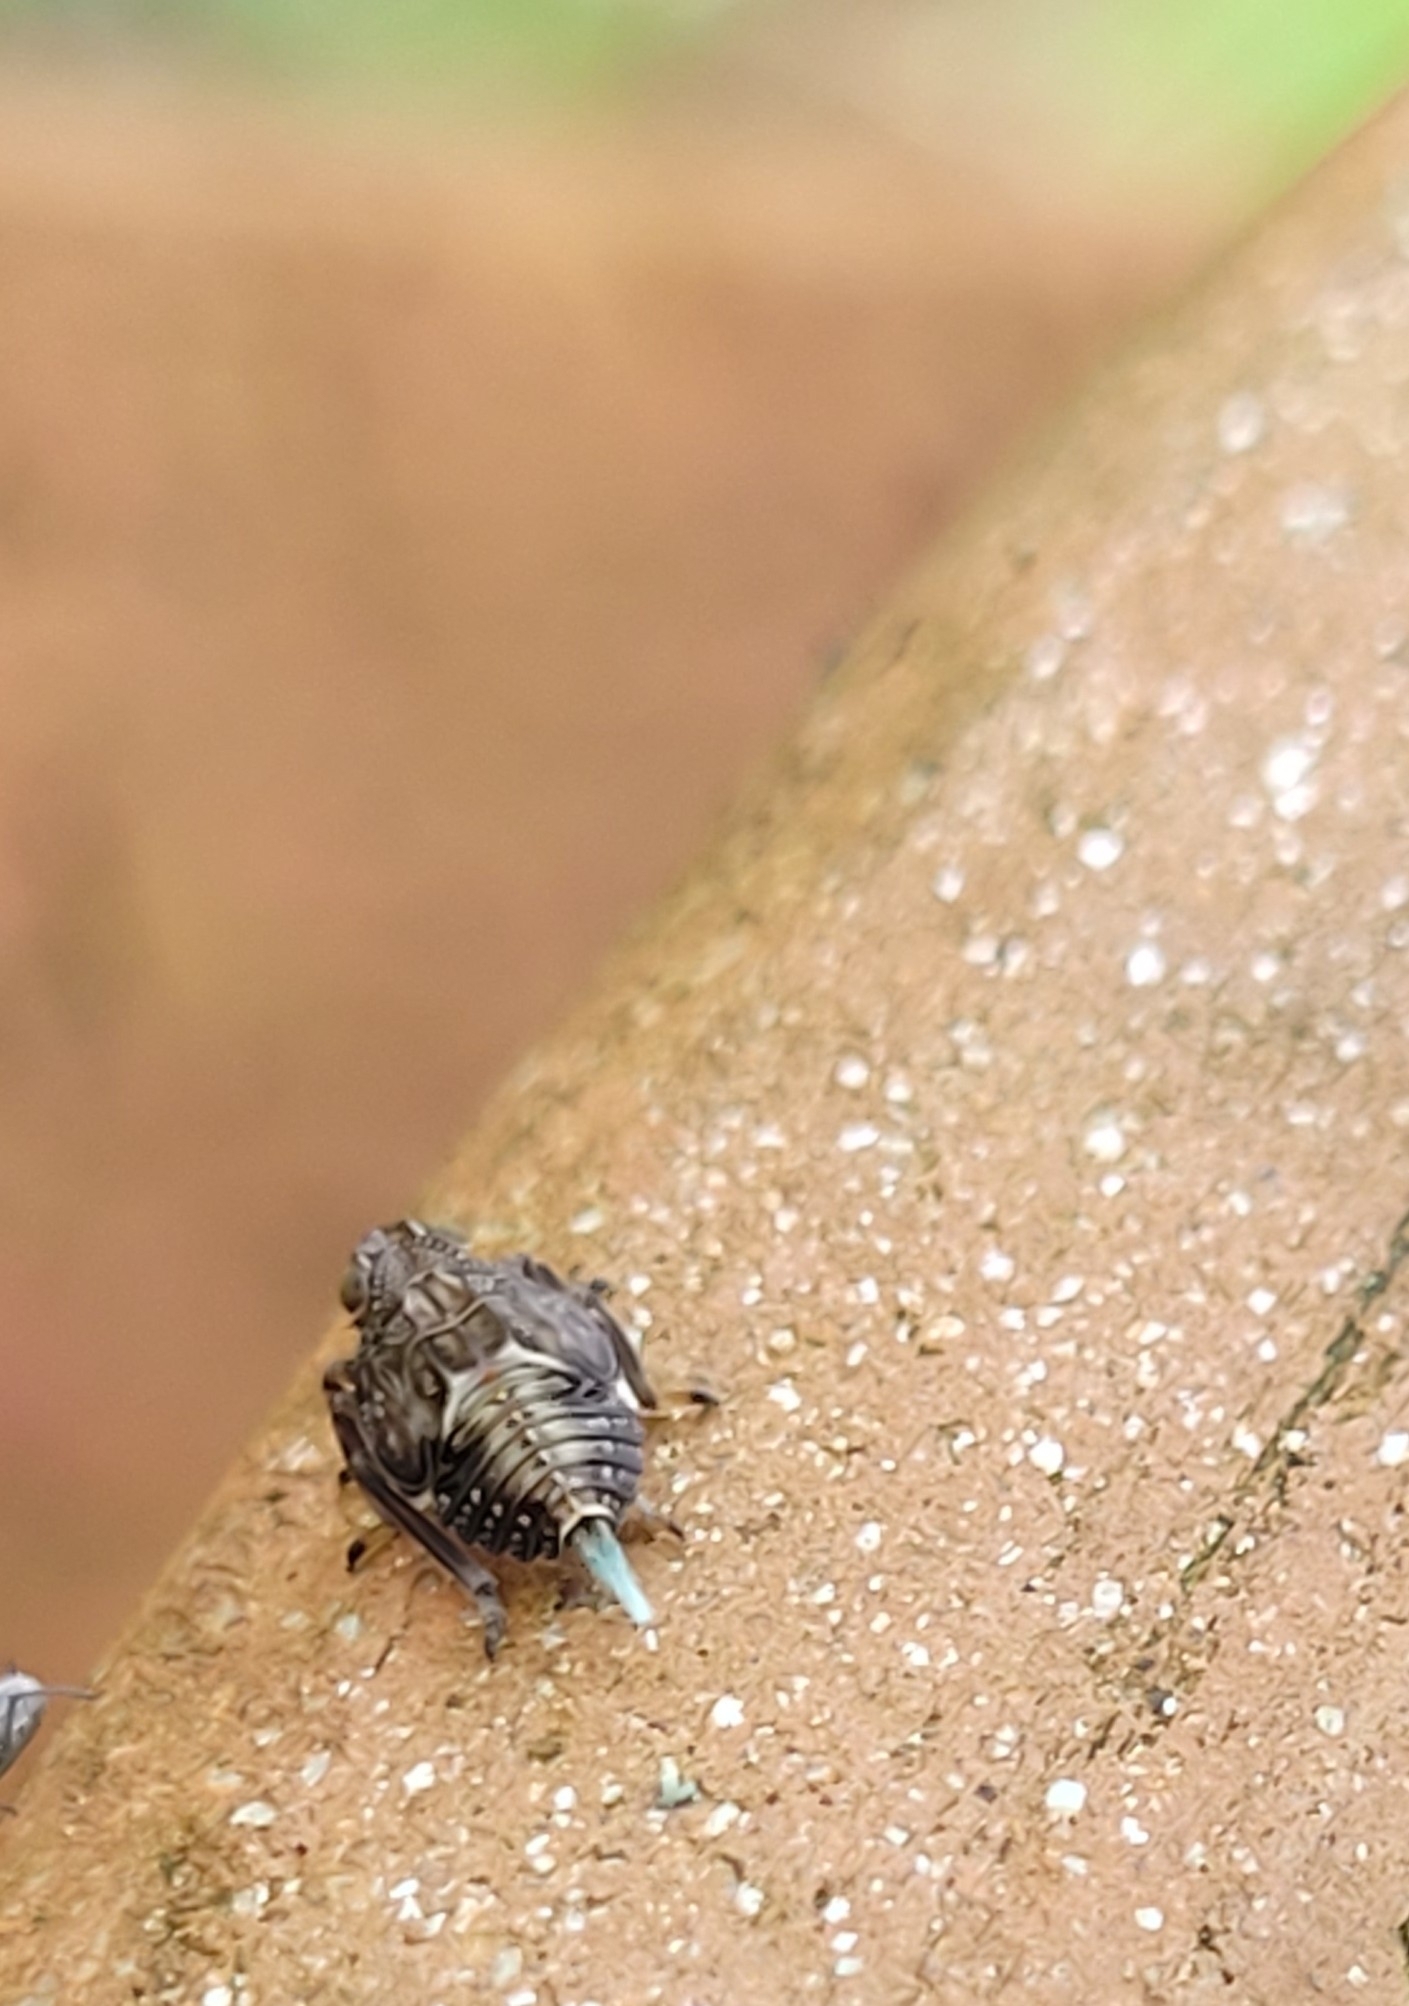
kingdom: Animalia
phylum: Arthropoda
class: Insecta
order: Hemiptera
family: Issidae
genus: Issus
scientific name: Issus coleoptratus
